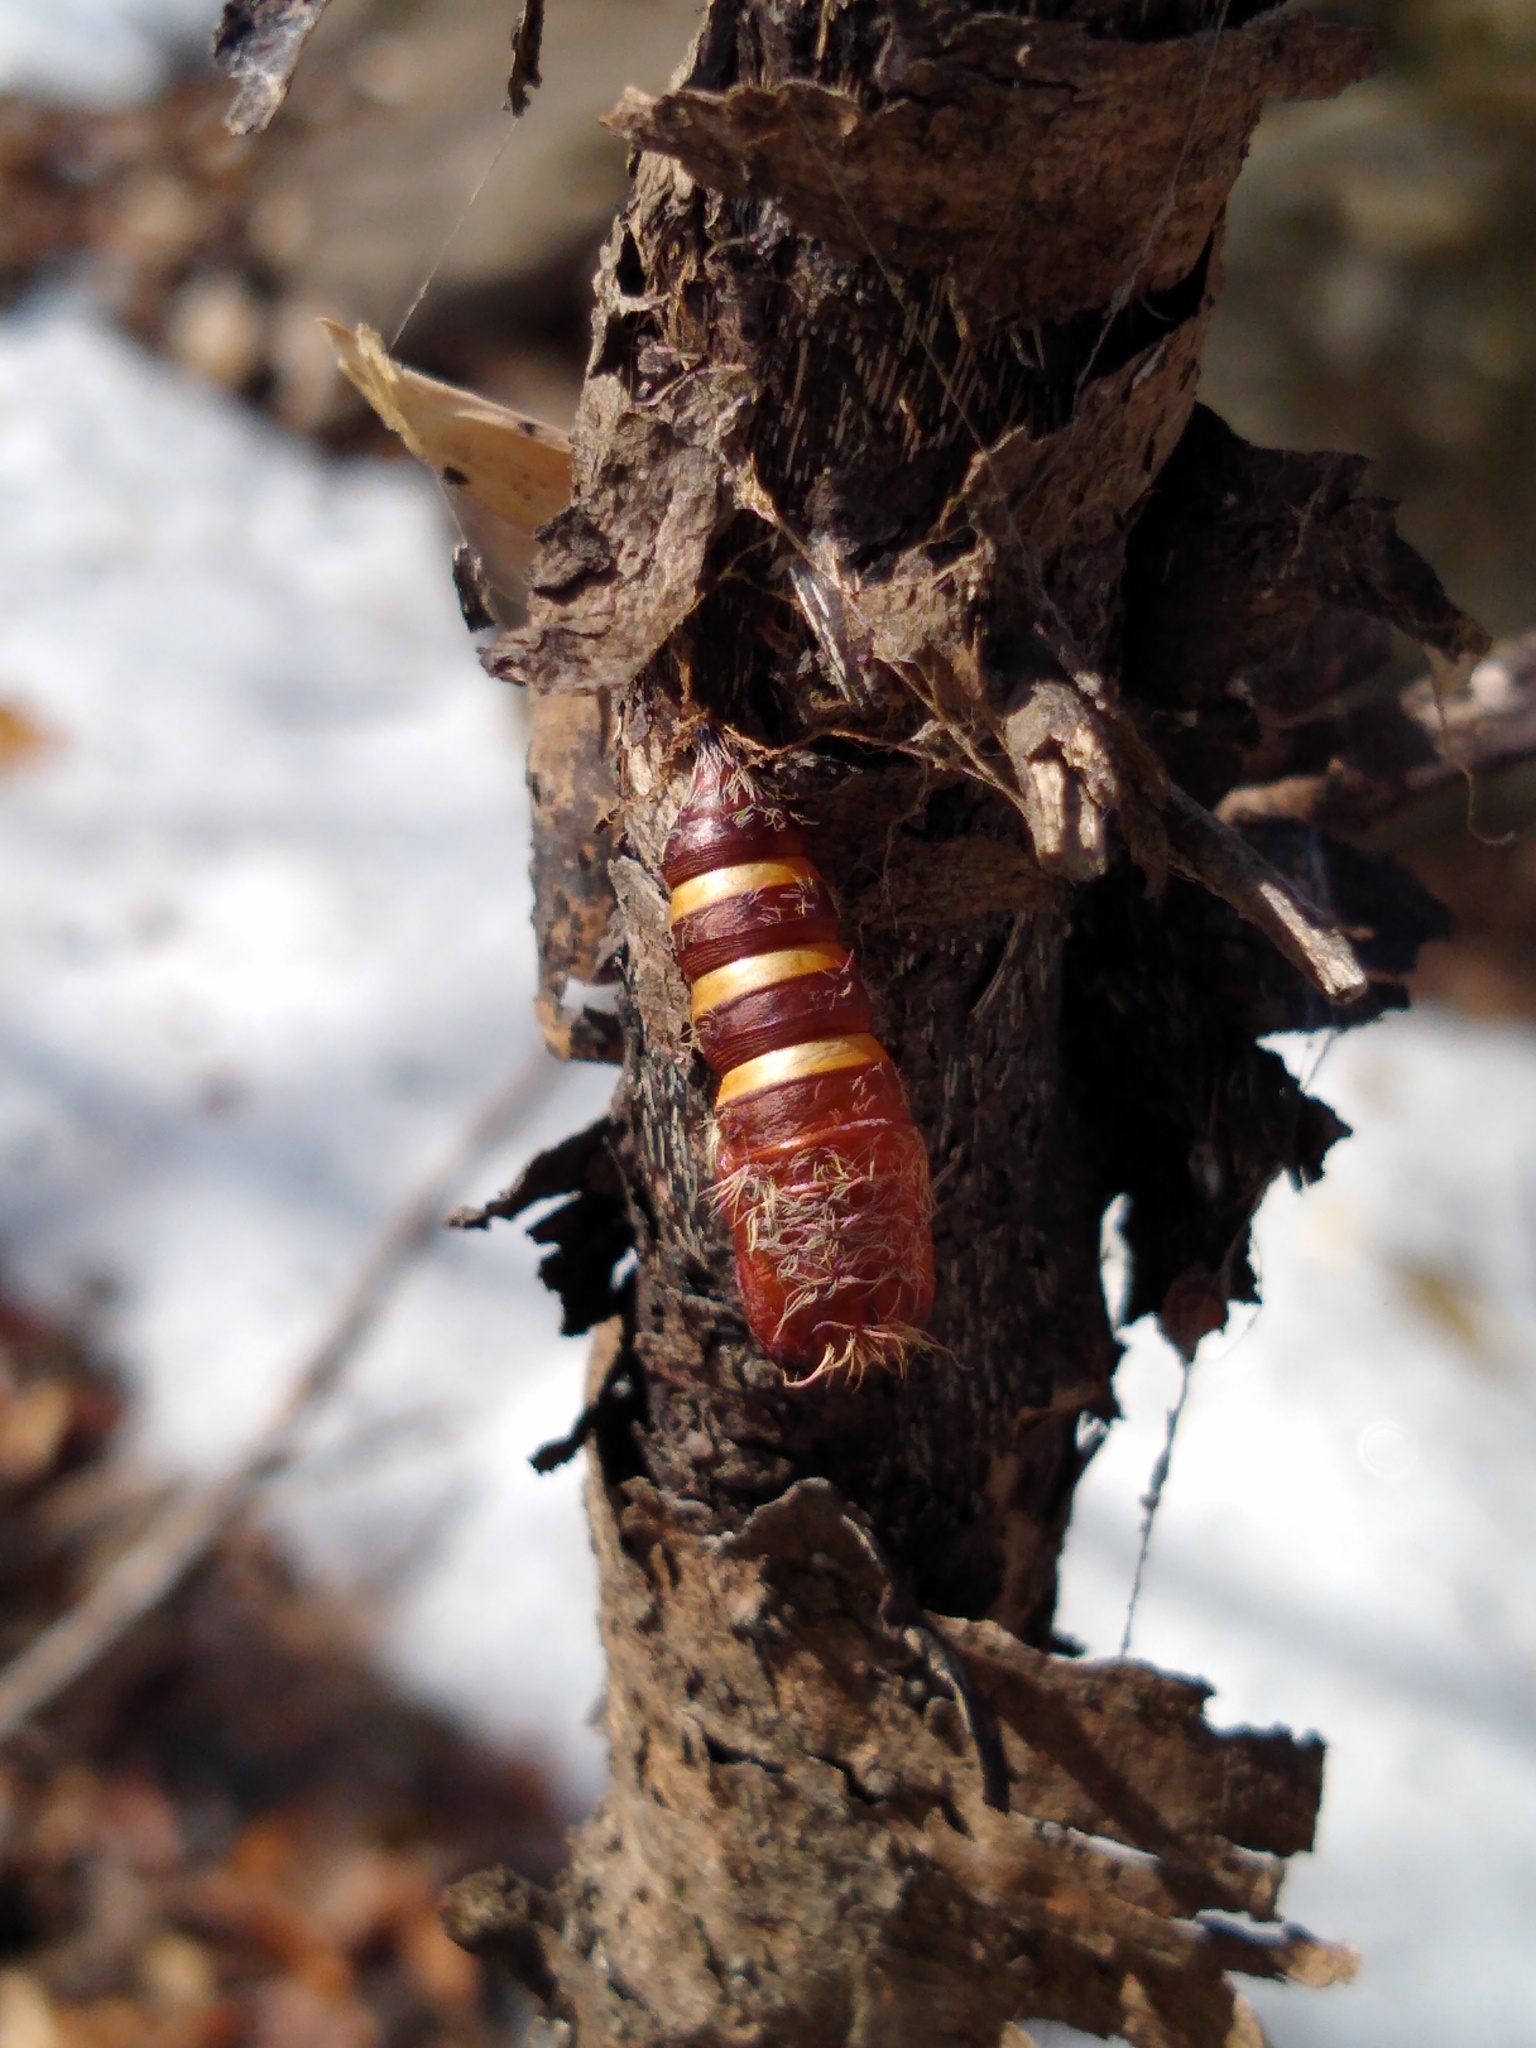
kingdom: Animalia
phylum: Arthropoda
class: Insecta
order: Lepidoptera
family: Erebidae
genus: Lymantria
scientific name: Lymantria dispar
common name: Gypsy moth
